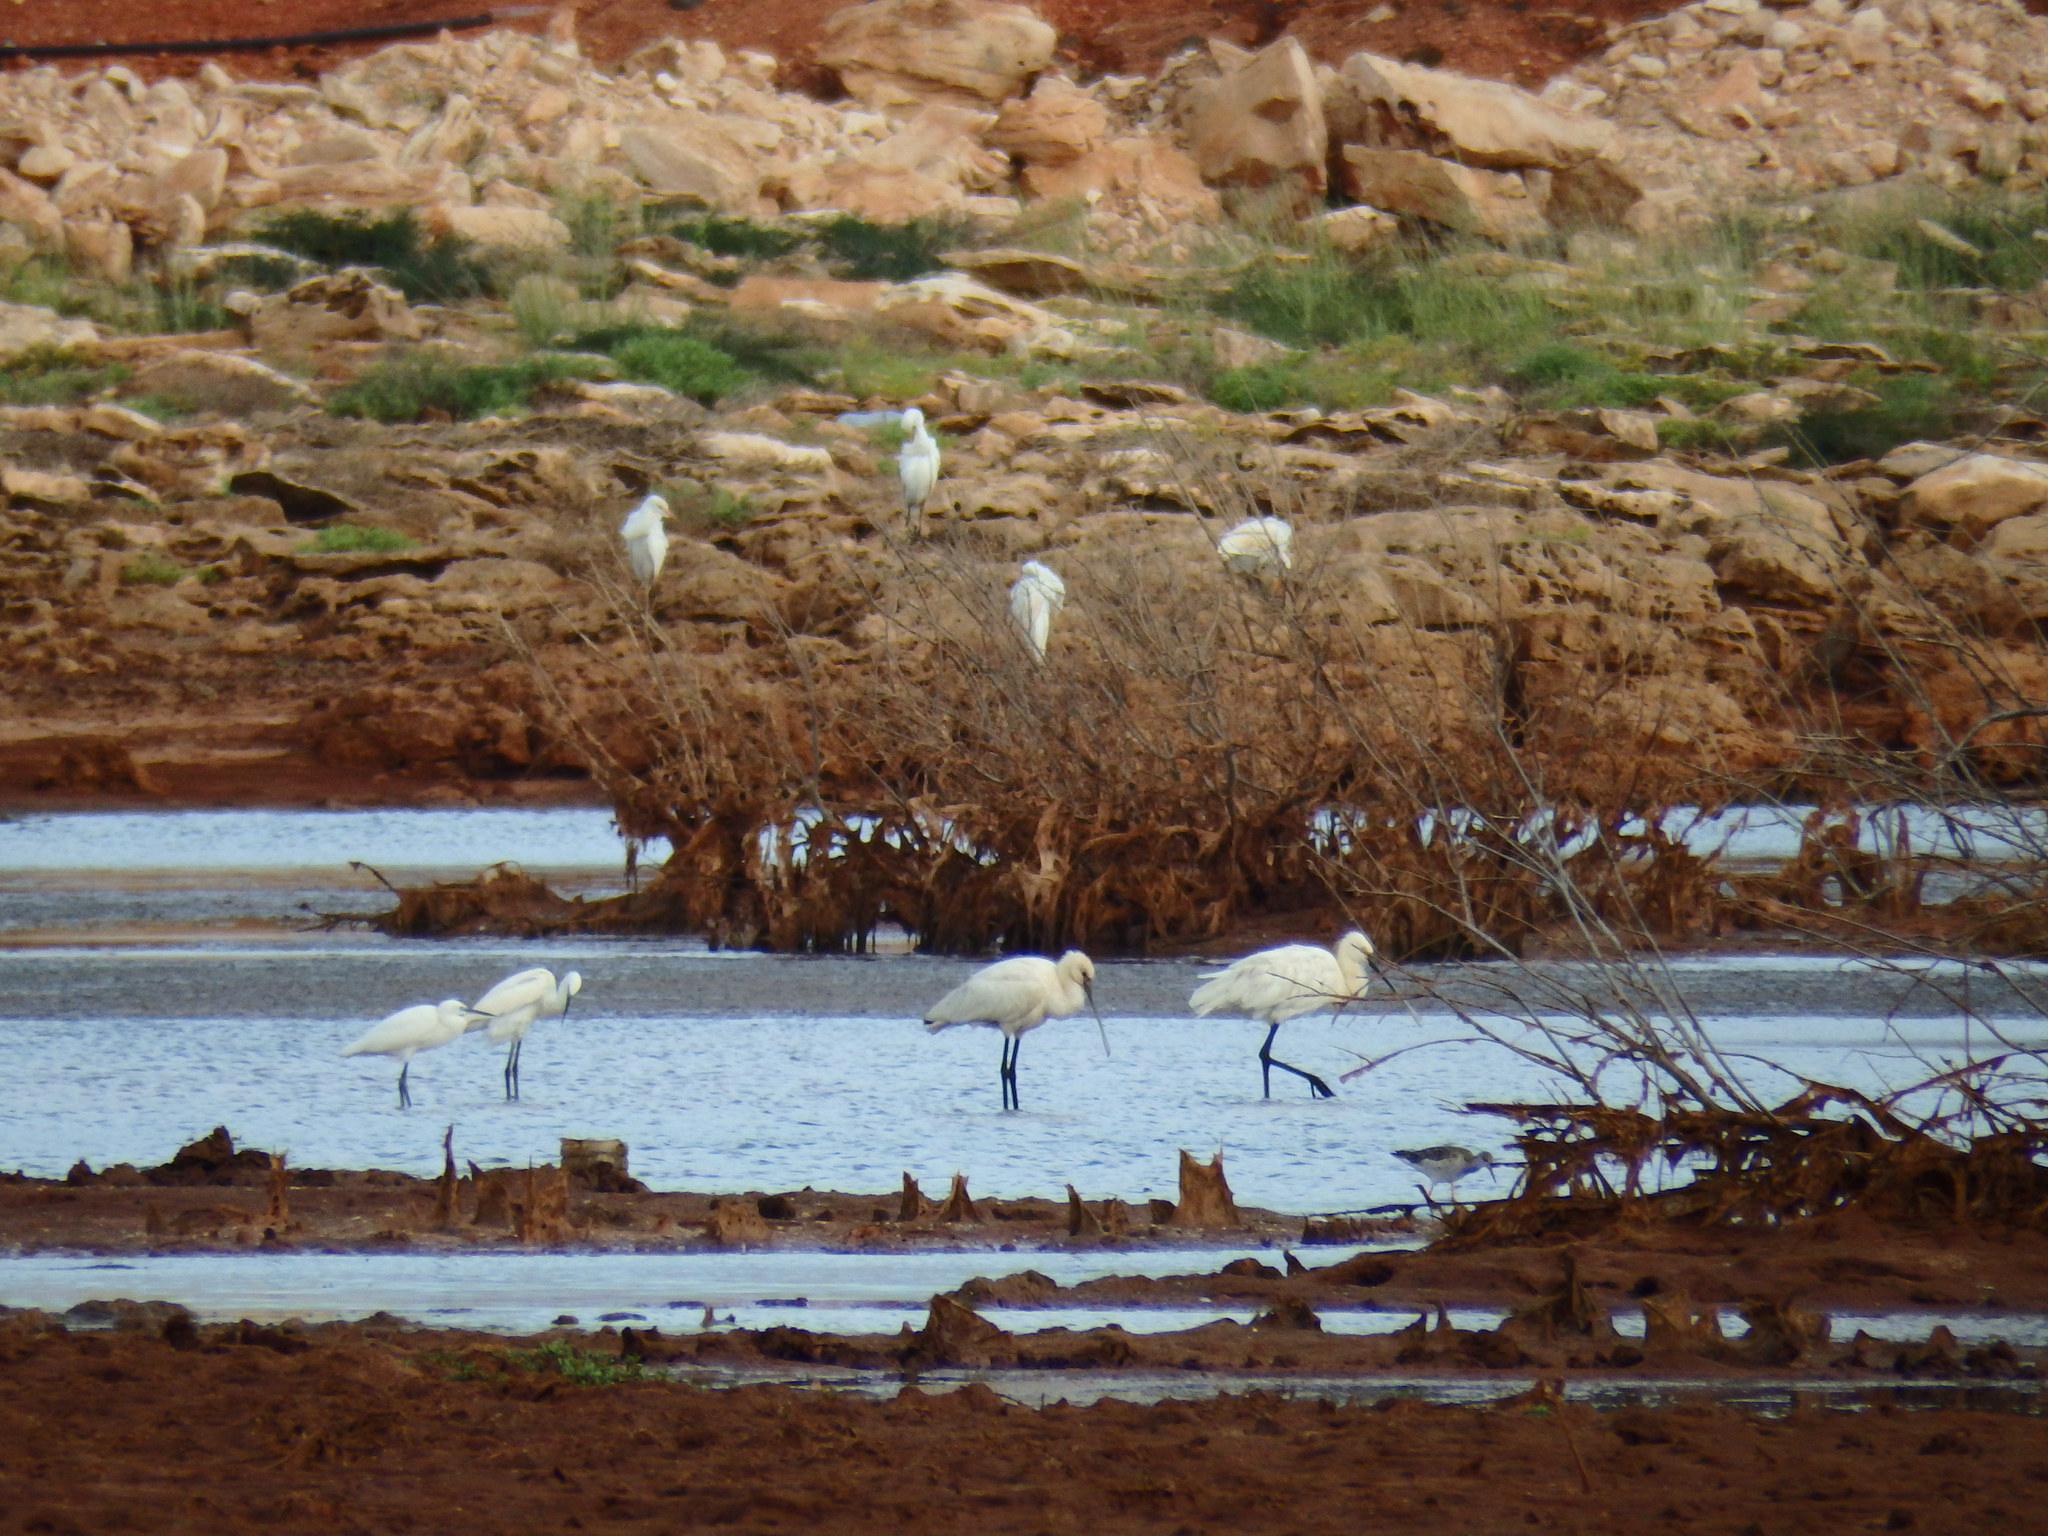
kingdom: Animalia
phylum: Chordata
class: Aves
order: Pelecaniformes
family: Ardeidae
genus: Bubulcus
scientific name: Bubulcus ibis
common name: Cattle egret
